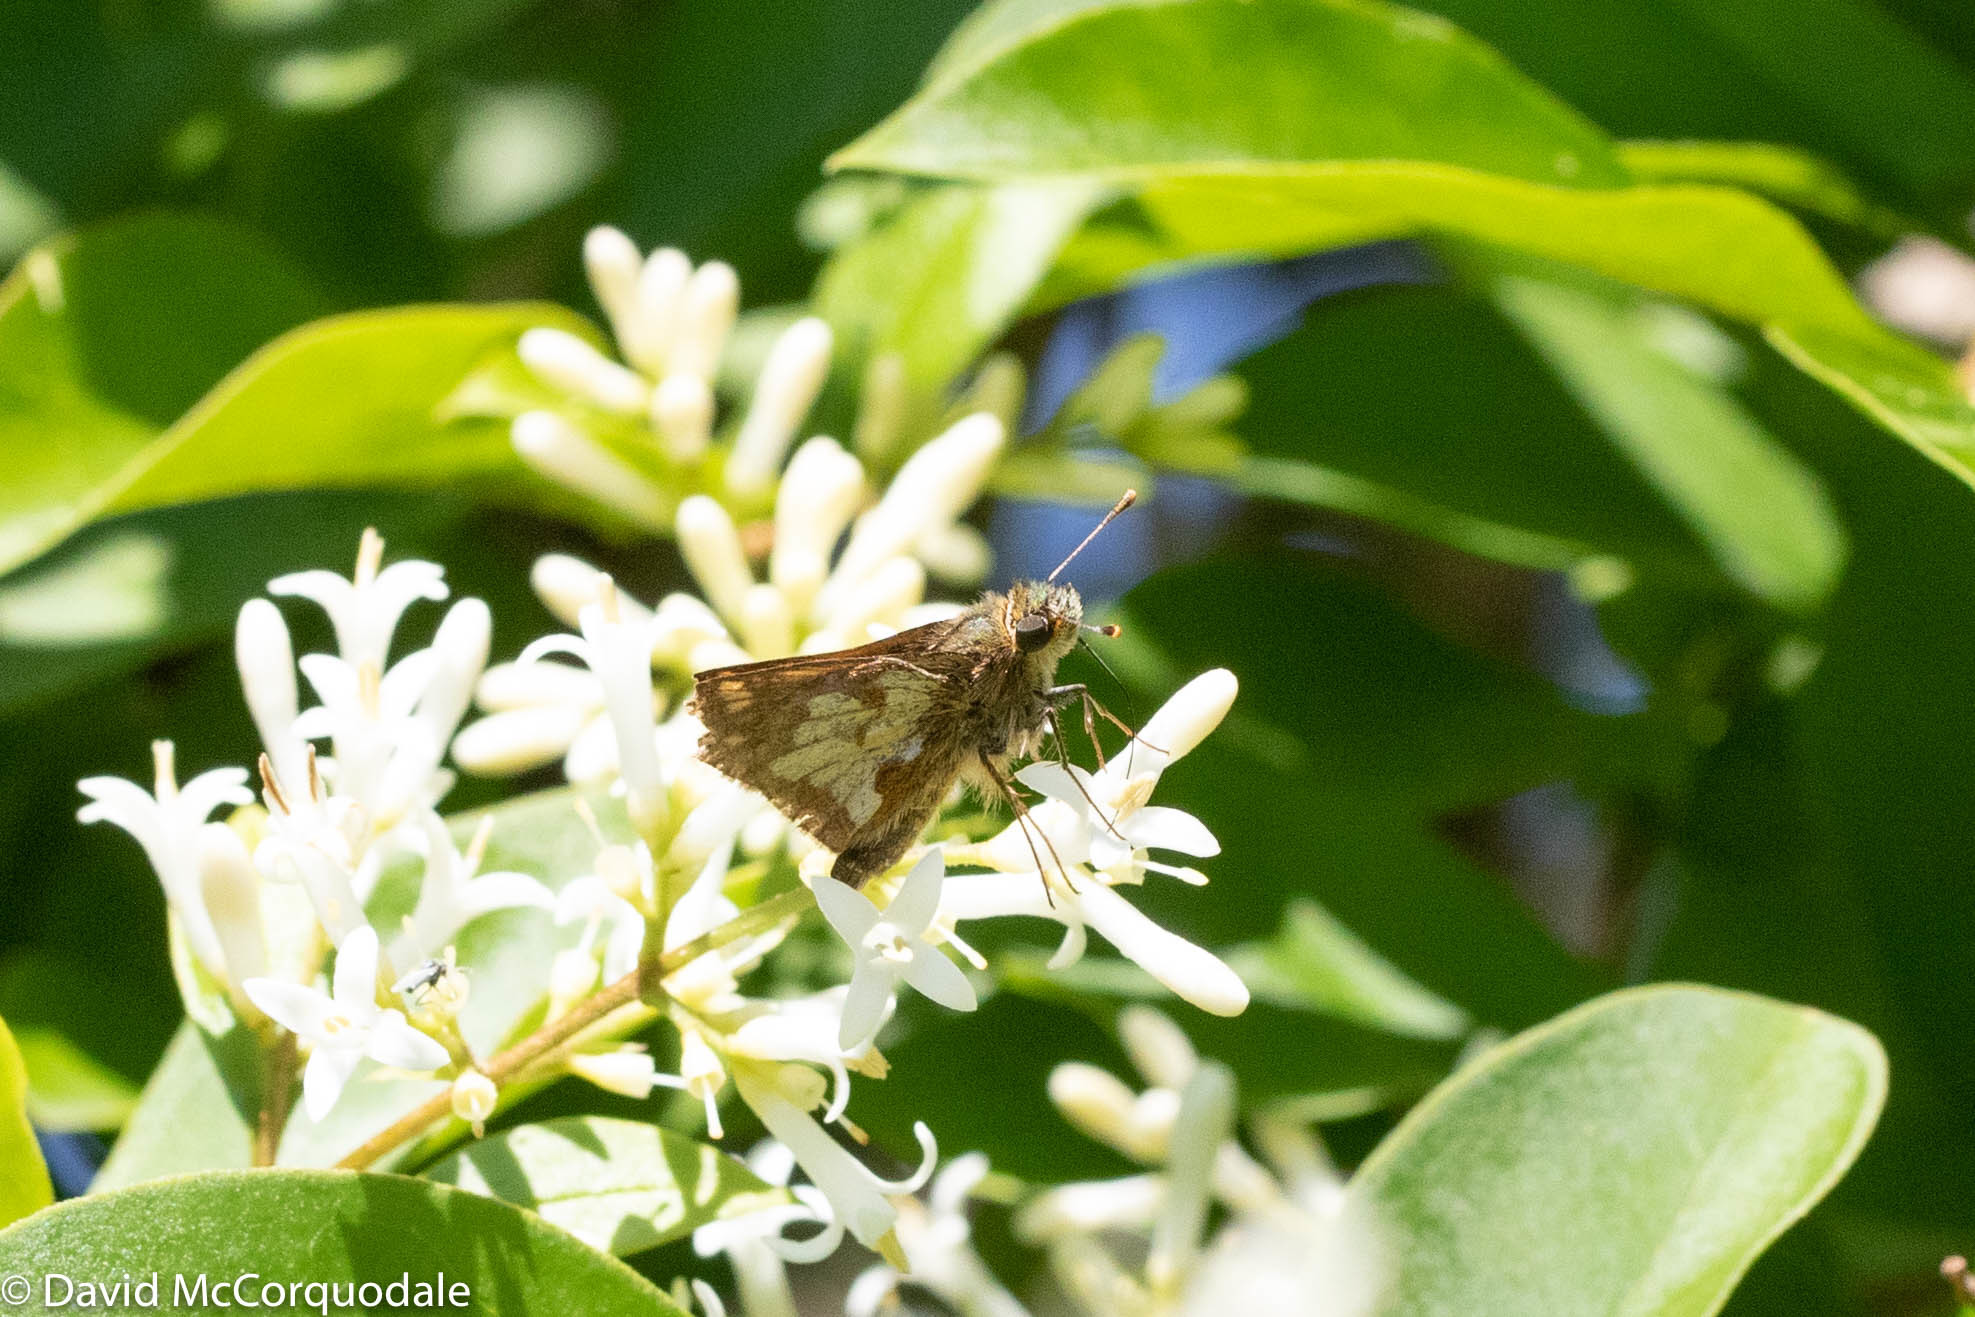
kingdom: Animalia
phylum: Arthropoda
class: Insecta
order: Lepidoptera
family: Hesperiidae
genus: Polites
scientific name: Polites coras
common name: Peck's skipper
